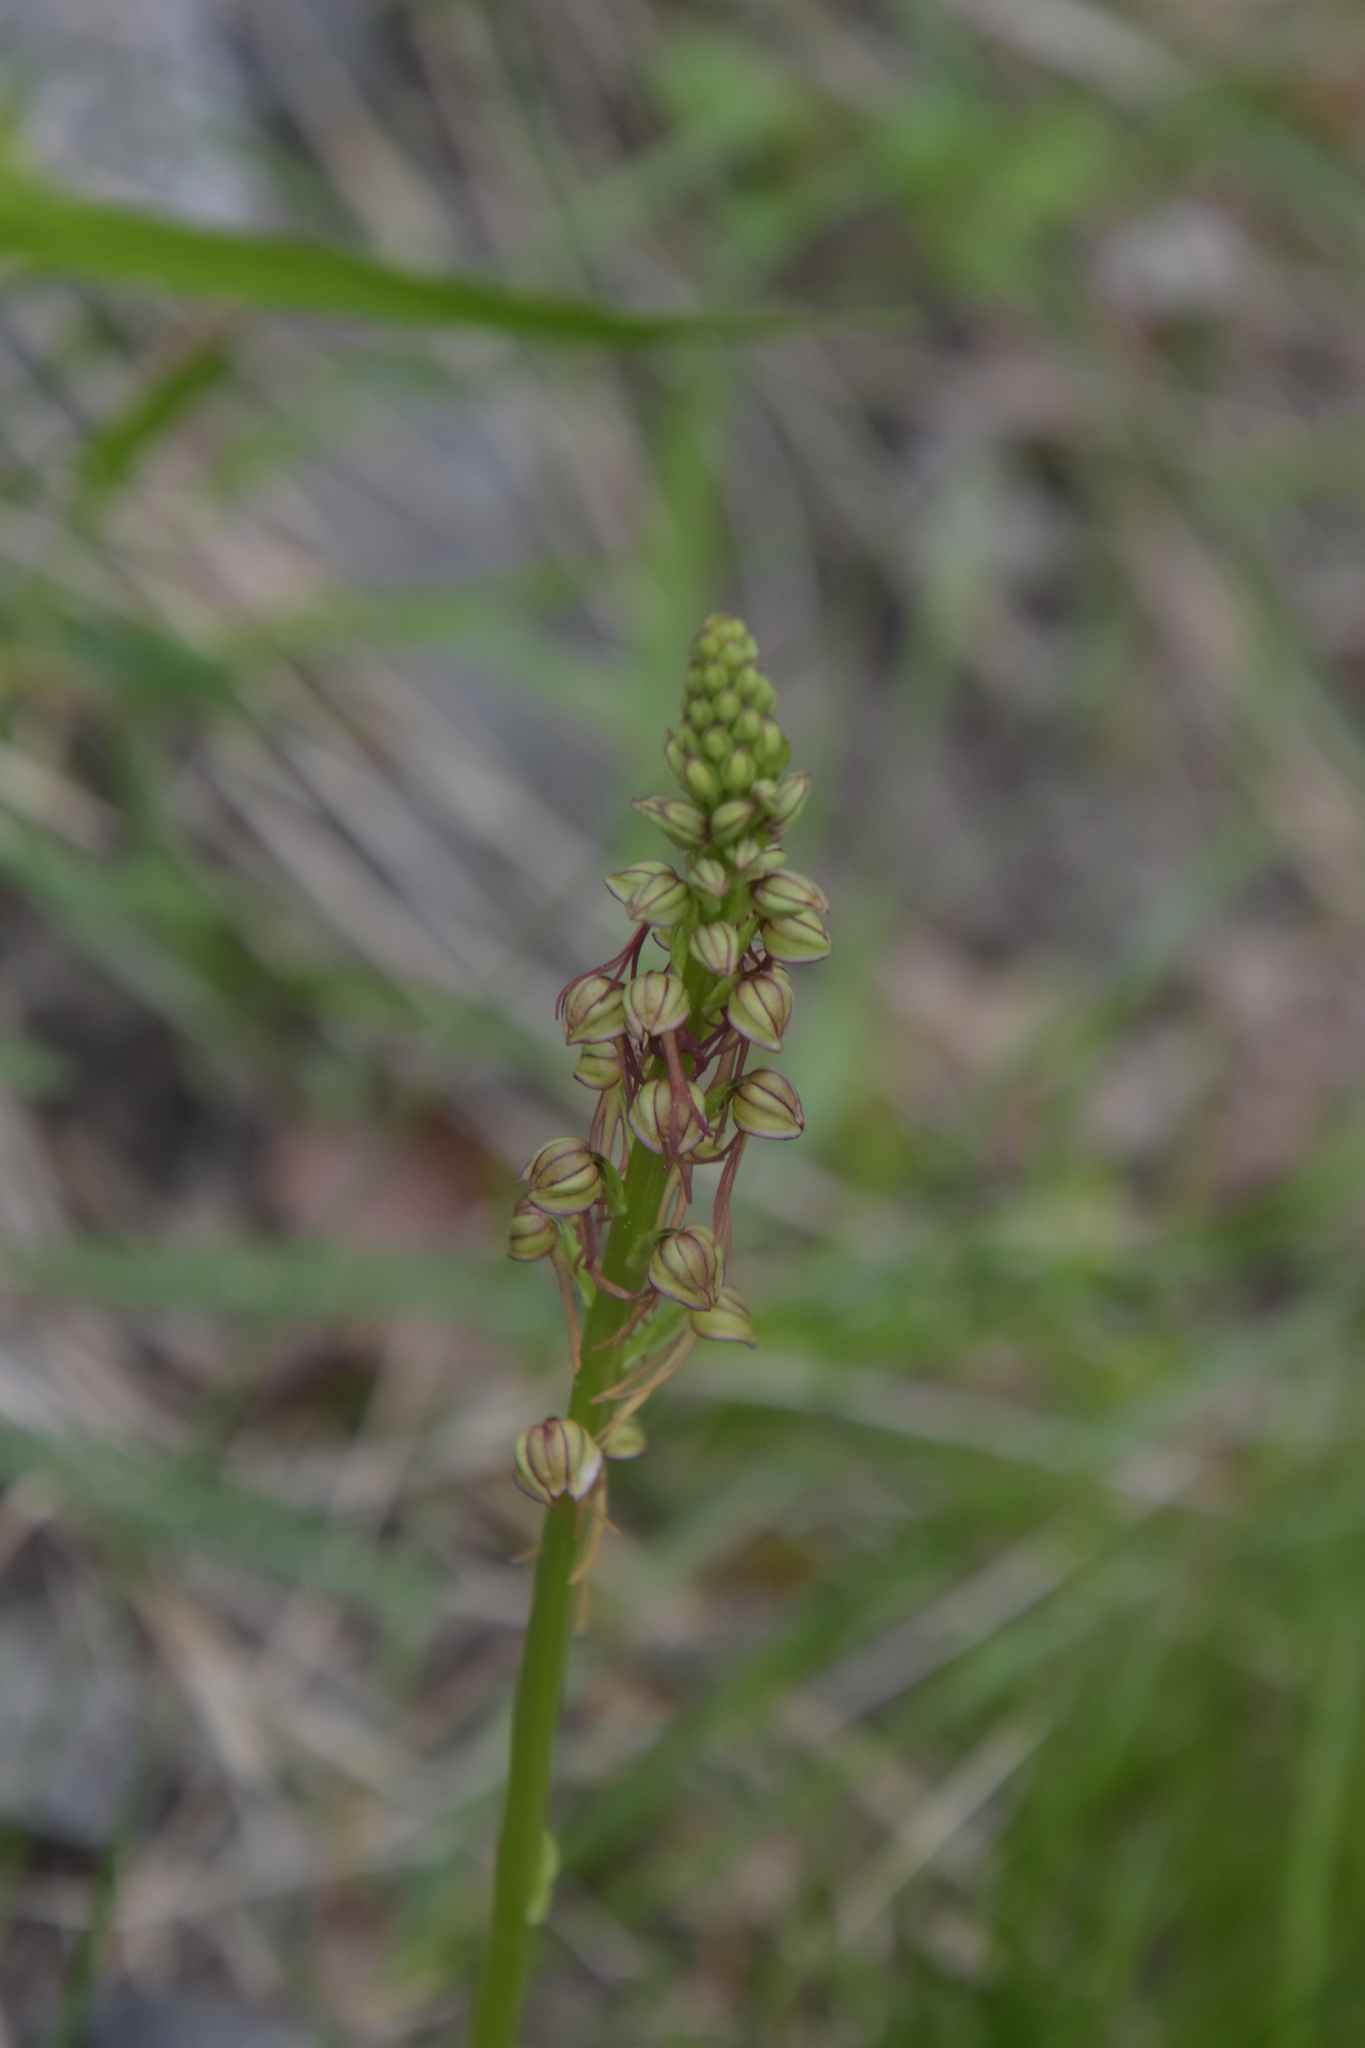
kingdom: Plantae
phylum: Tracheophyta
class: Liliopsida
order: Asparagales
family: Orchidaceae
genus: Orchis
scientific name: Orchis anthropophora
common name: Man orchid
